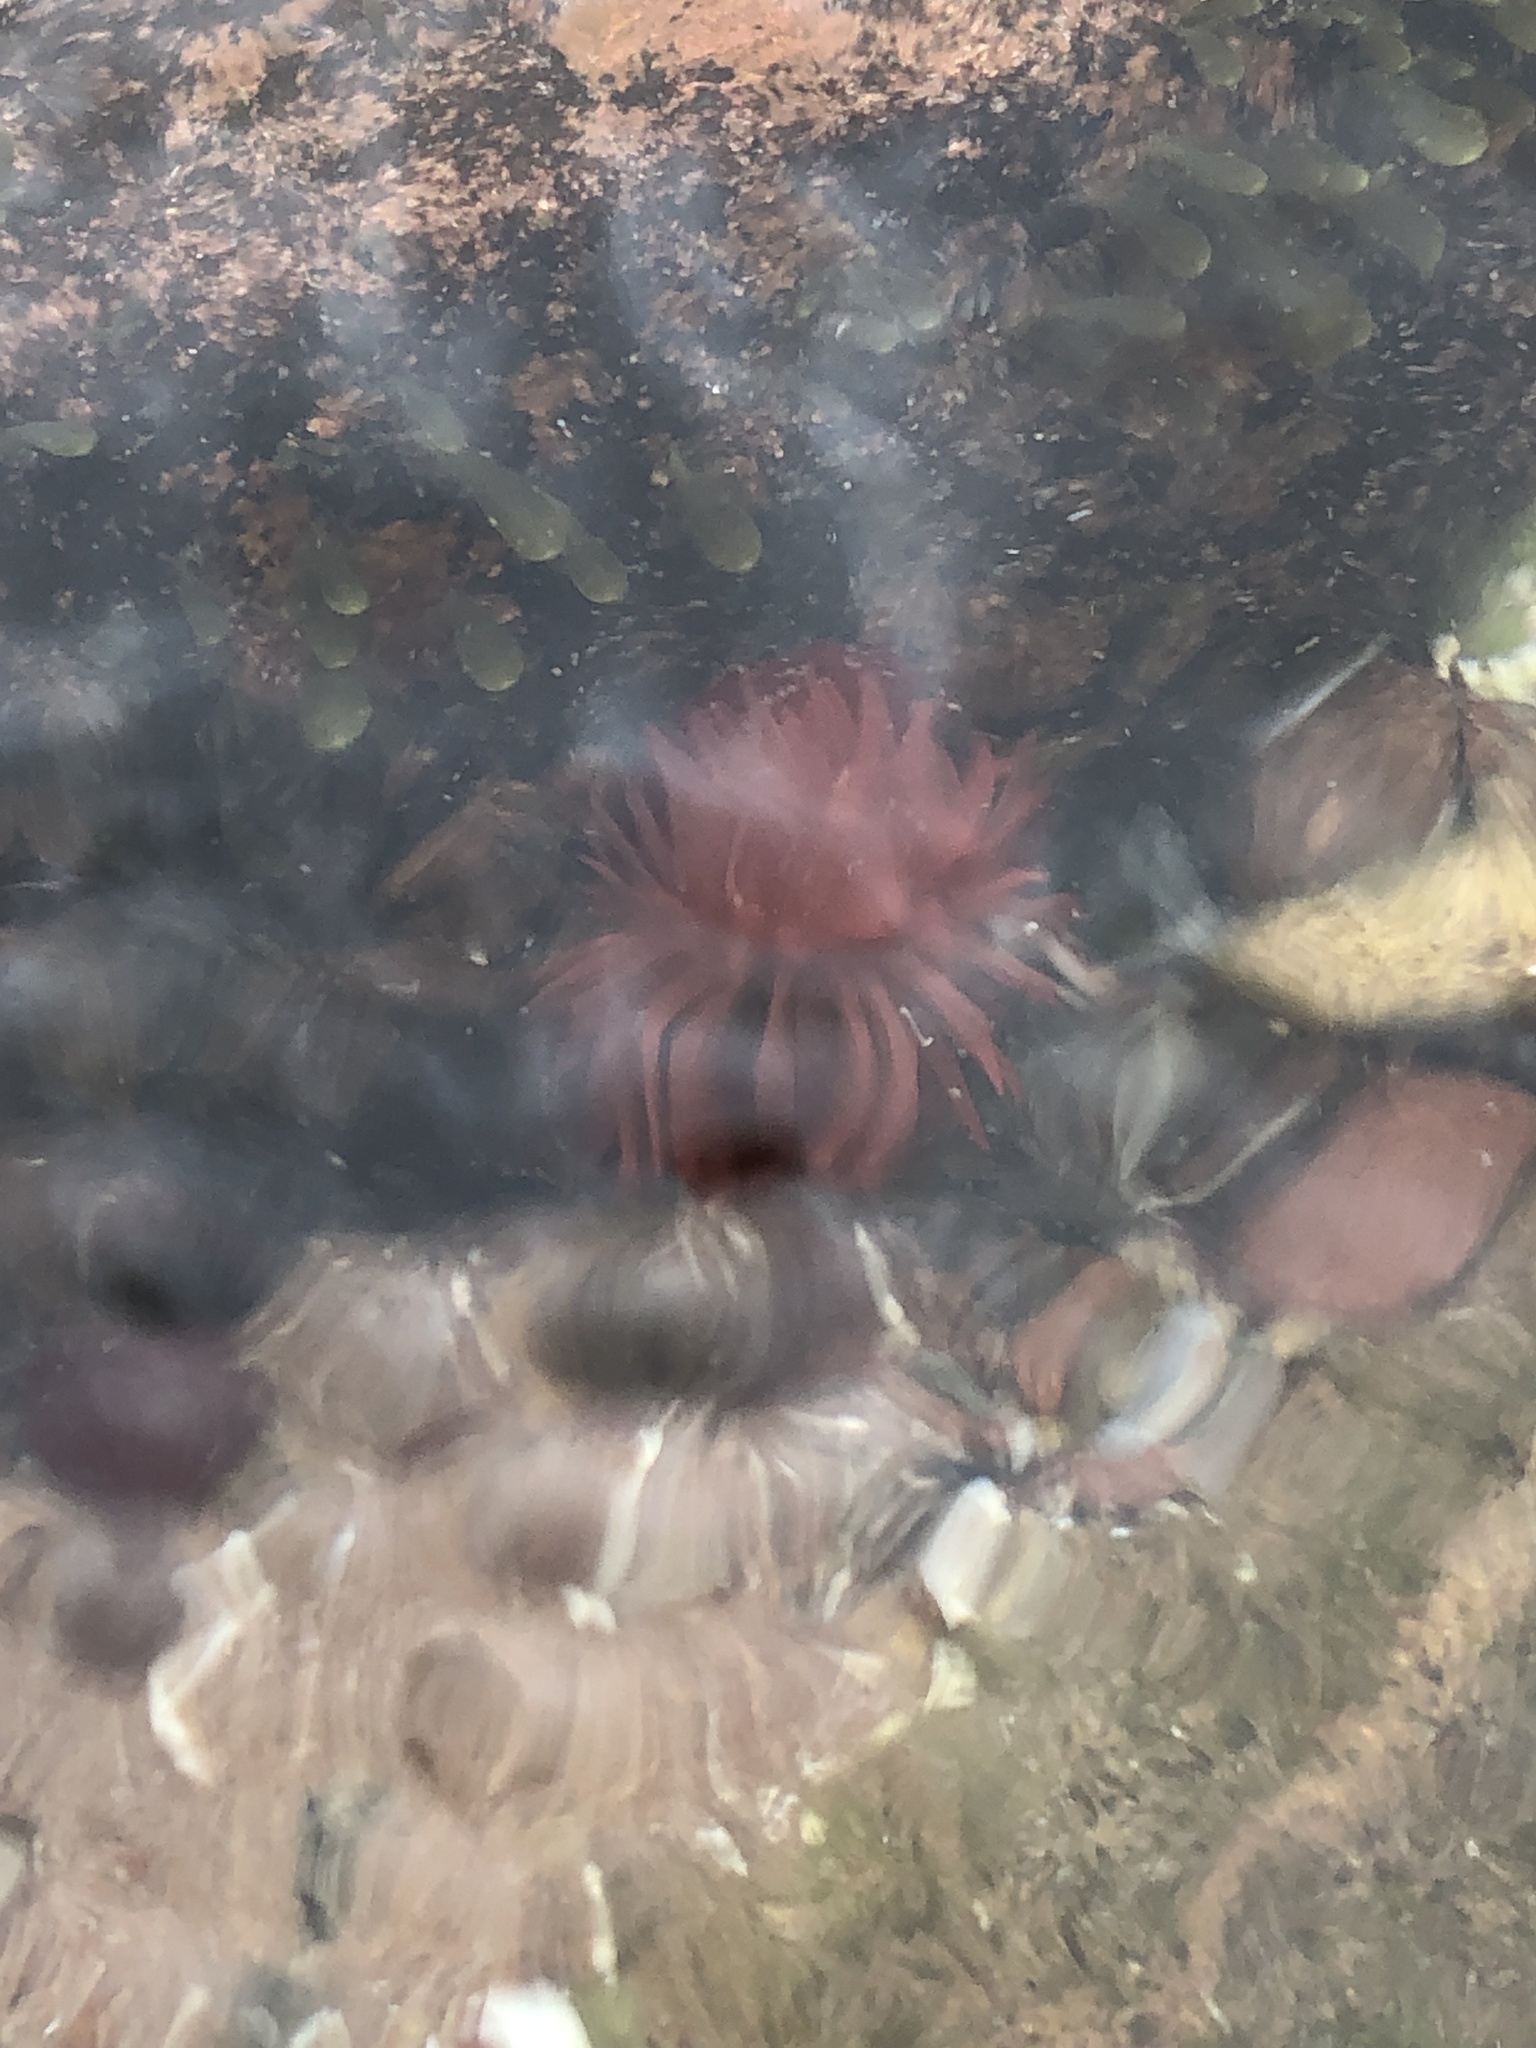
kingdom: Animalia
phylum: Cnidaria
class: Anthozoa
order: Actiniaria
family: Actiniidae
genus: Actinia
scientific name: Actinia equina
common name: Beadlet anemone
